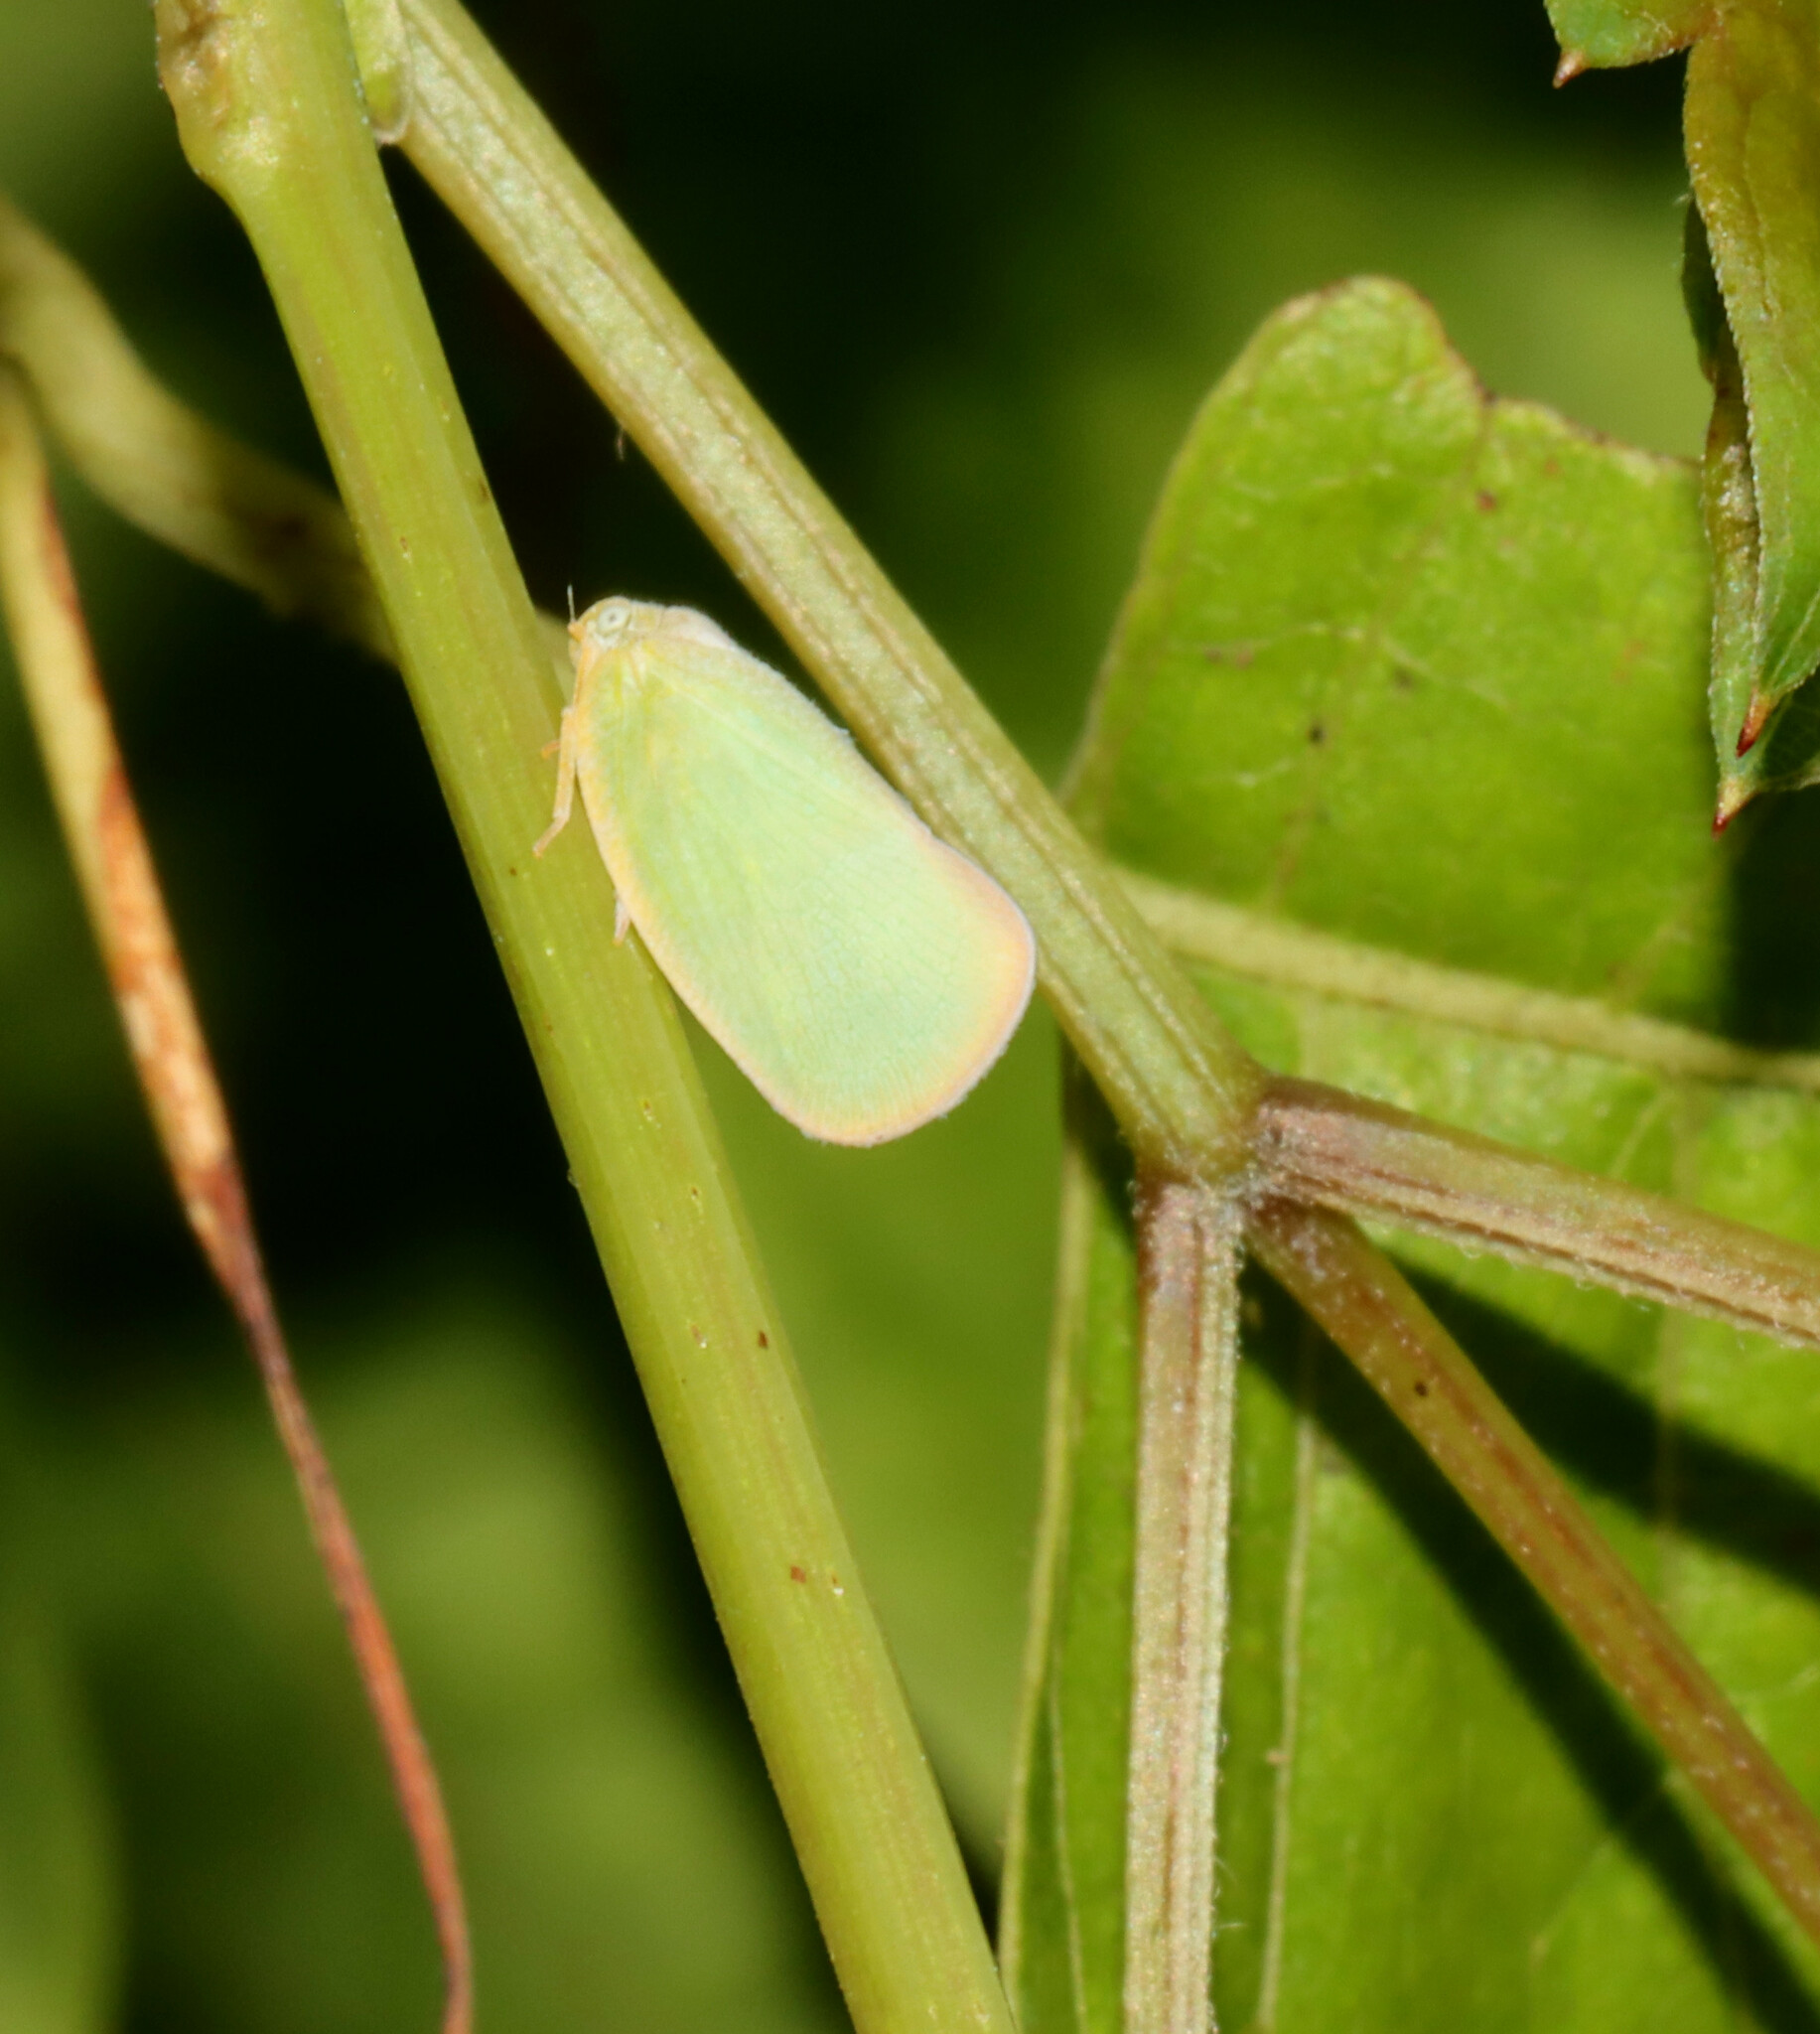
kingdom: Animalia
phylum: Arthropoda
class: Insecta
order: Hemiptera
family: Flatidae
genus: Ormenoides
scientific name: Ormenoides venusta
